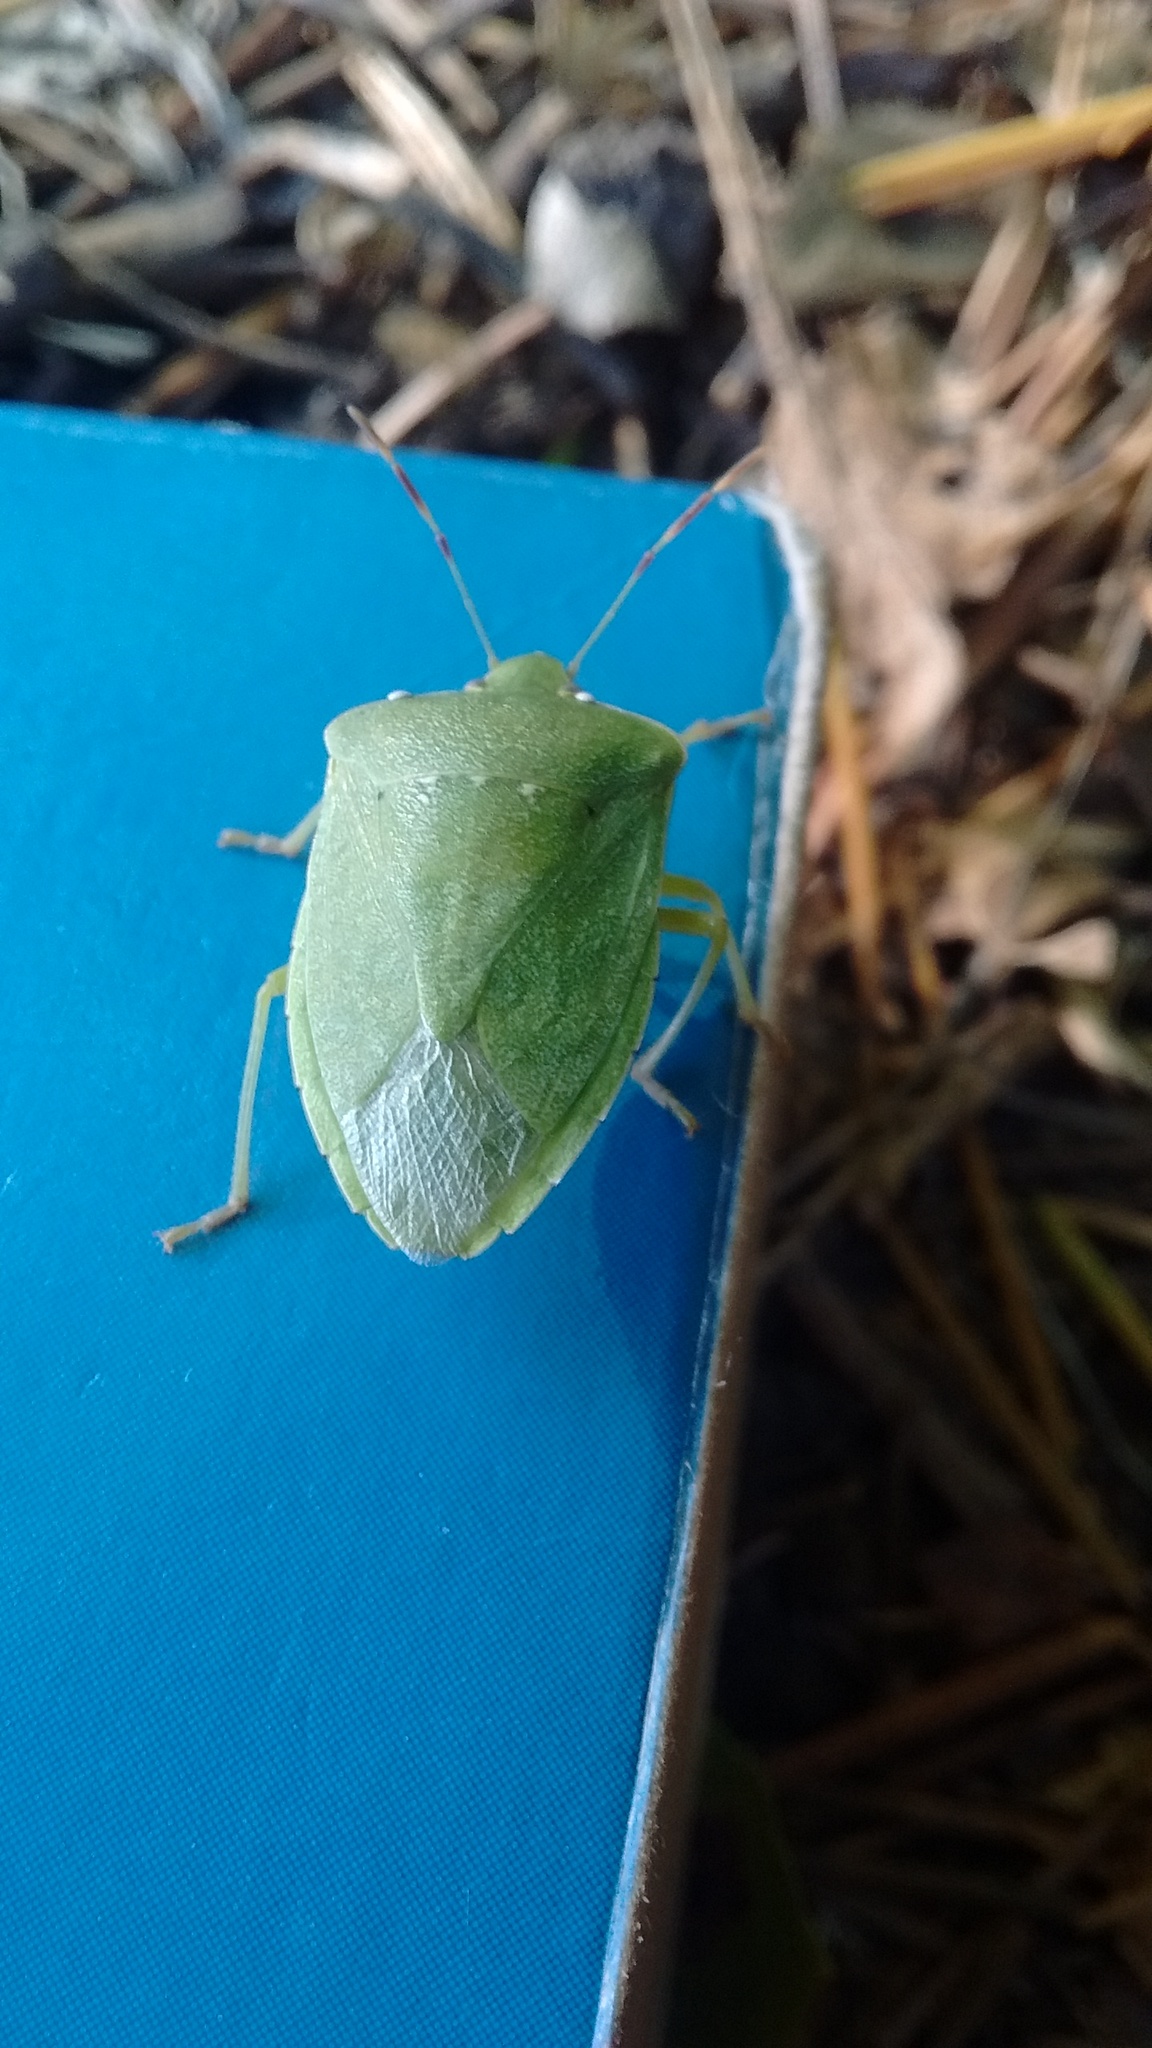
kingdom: Animalia
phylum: Arthropoda
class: Insecta
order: Hemiptera
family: Pentatomidae
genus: Nezara
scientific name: Nezara viridula
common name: Southern green stink bug
